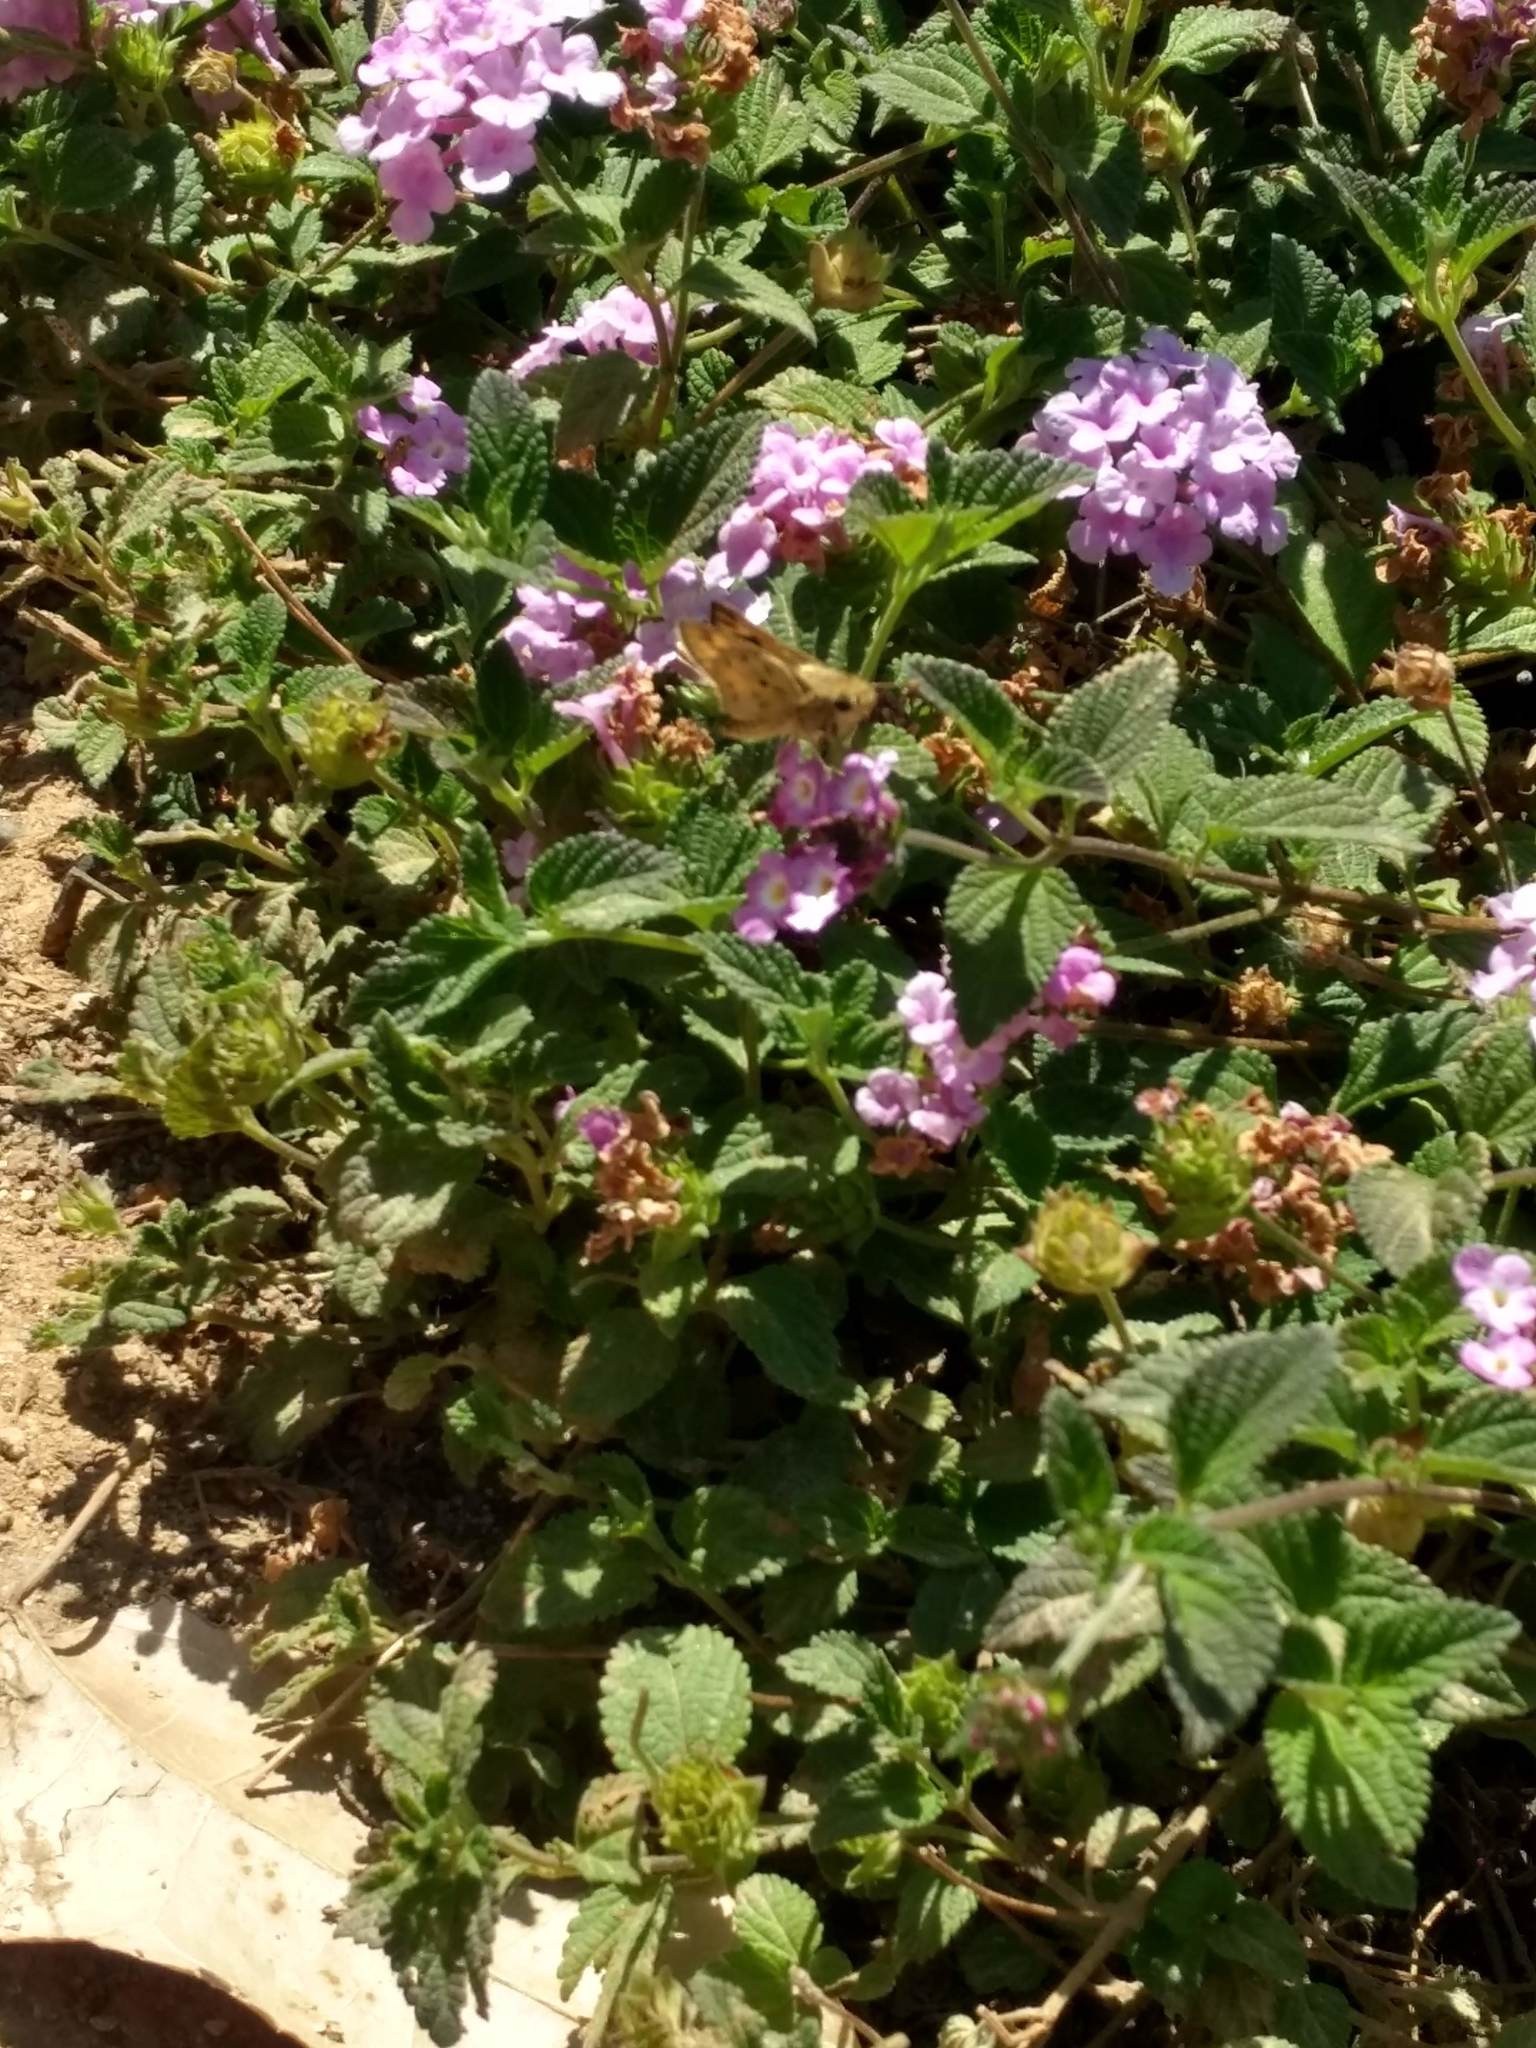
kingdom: Animalia
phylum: Arthropoda
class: Insecta
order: Lepidoptera
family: Hesperiidae
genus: Hylephila
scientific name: Hylephila phyleus
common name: Fiery skipper
